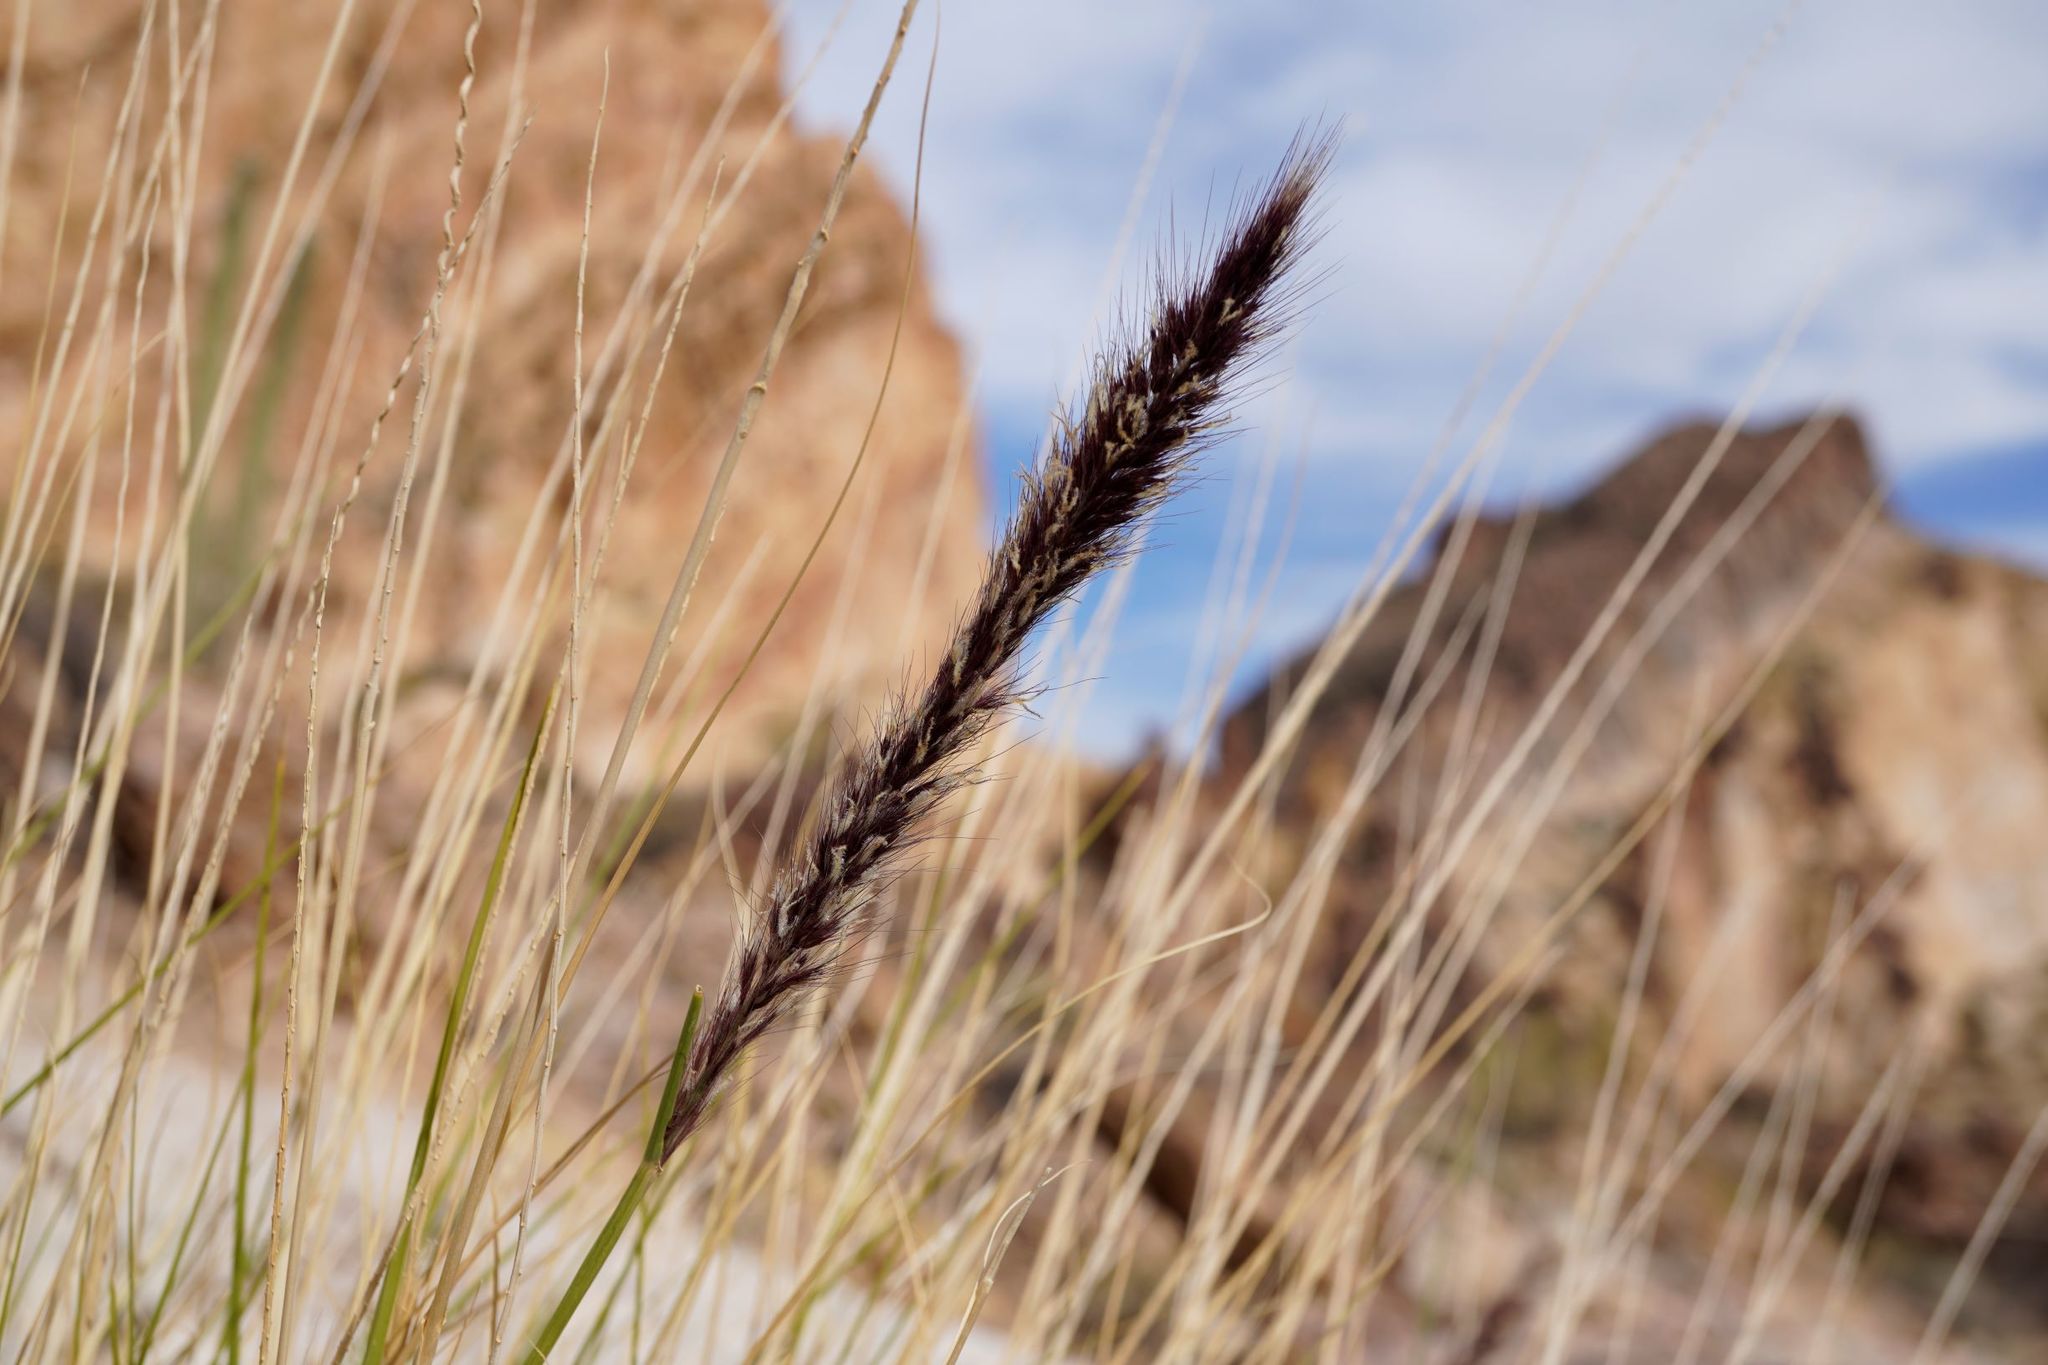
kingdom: Plantae
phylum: Tracheophyta
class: Liliopsida
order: Poales
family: Poaceae
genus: Cenchrus
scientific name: Cenchrus setaceus
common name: Crimson fountaingrass
